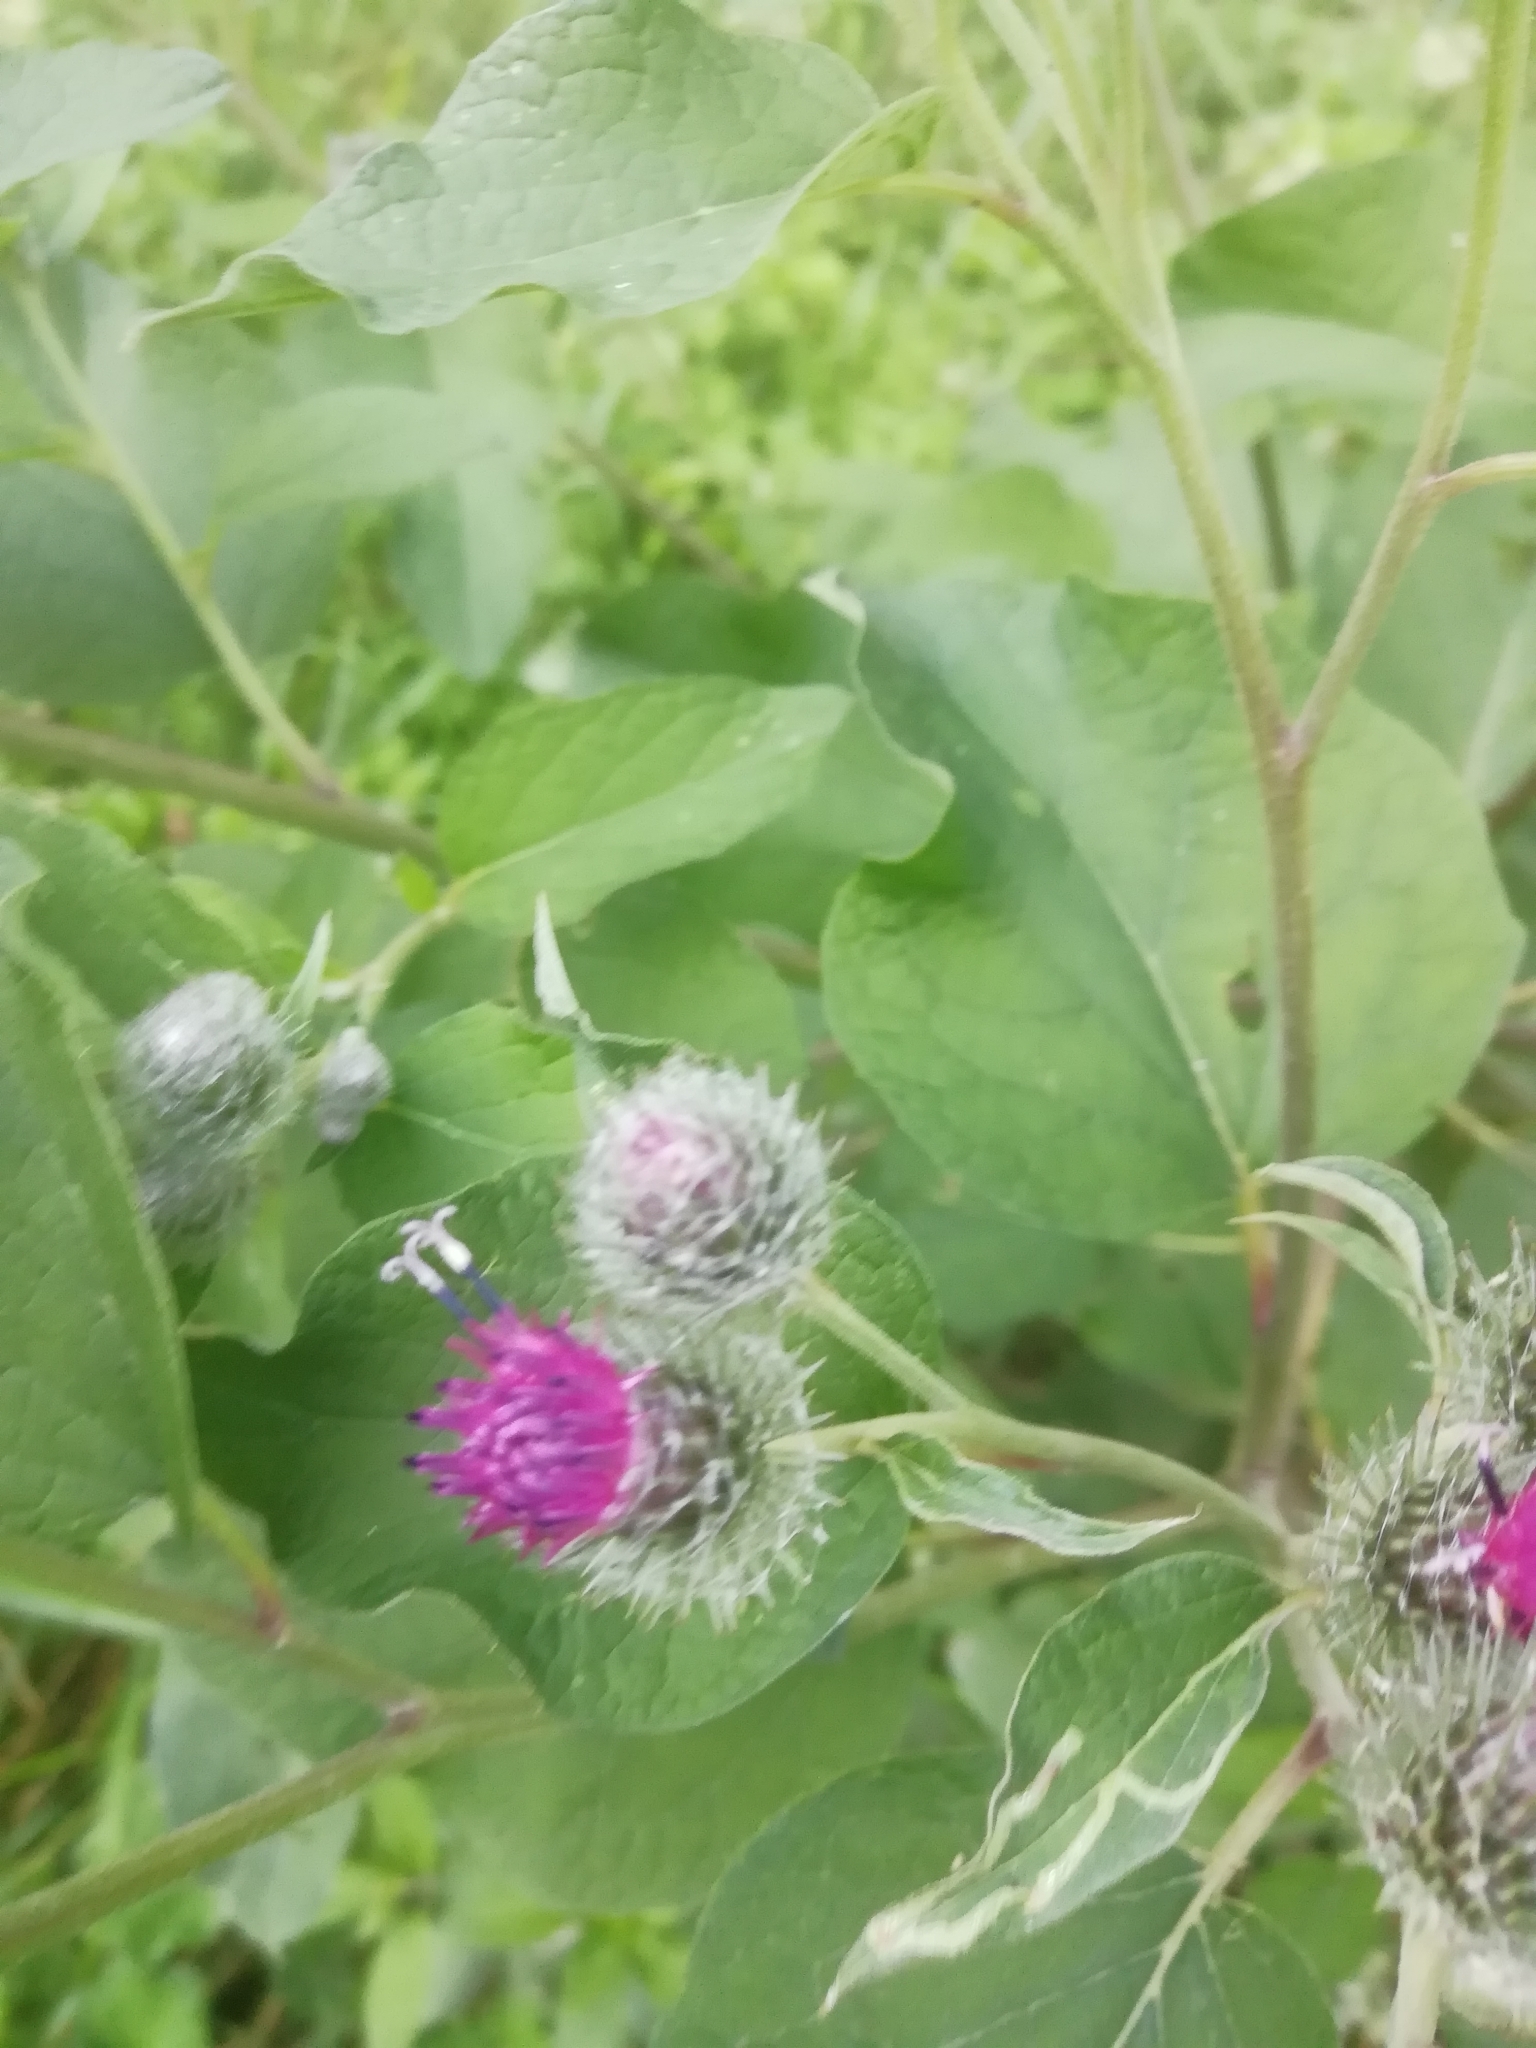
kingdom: Plantae
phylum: Tracheophyta
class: Magnoliopsida
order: Asterales
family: Asteraceae
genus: Arctium
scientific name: Arctium tomentosum
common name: Woolly burdock
